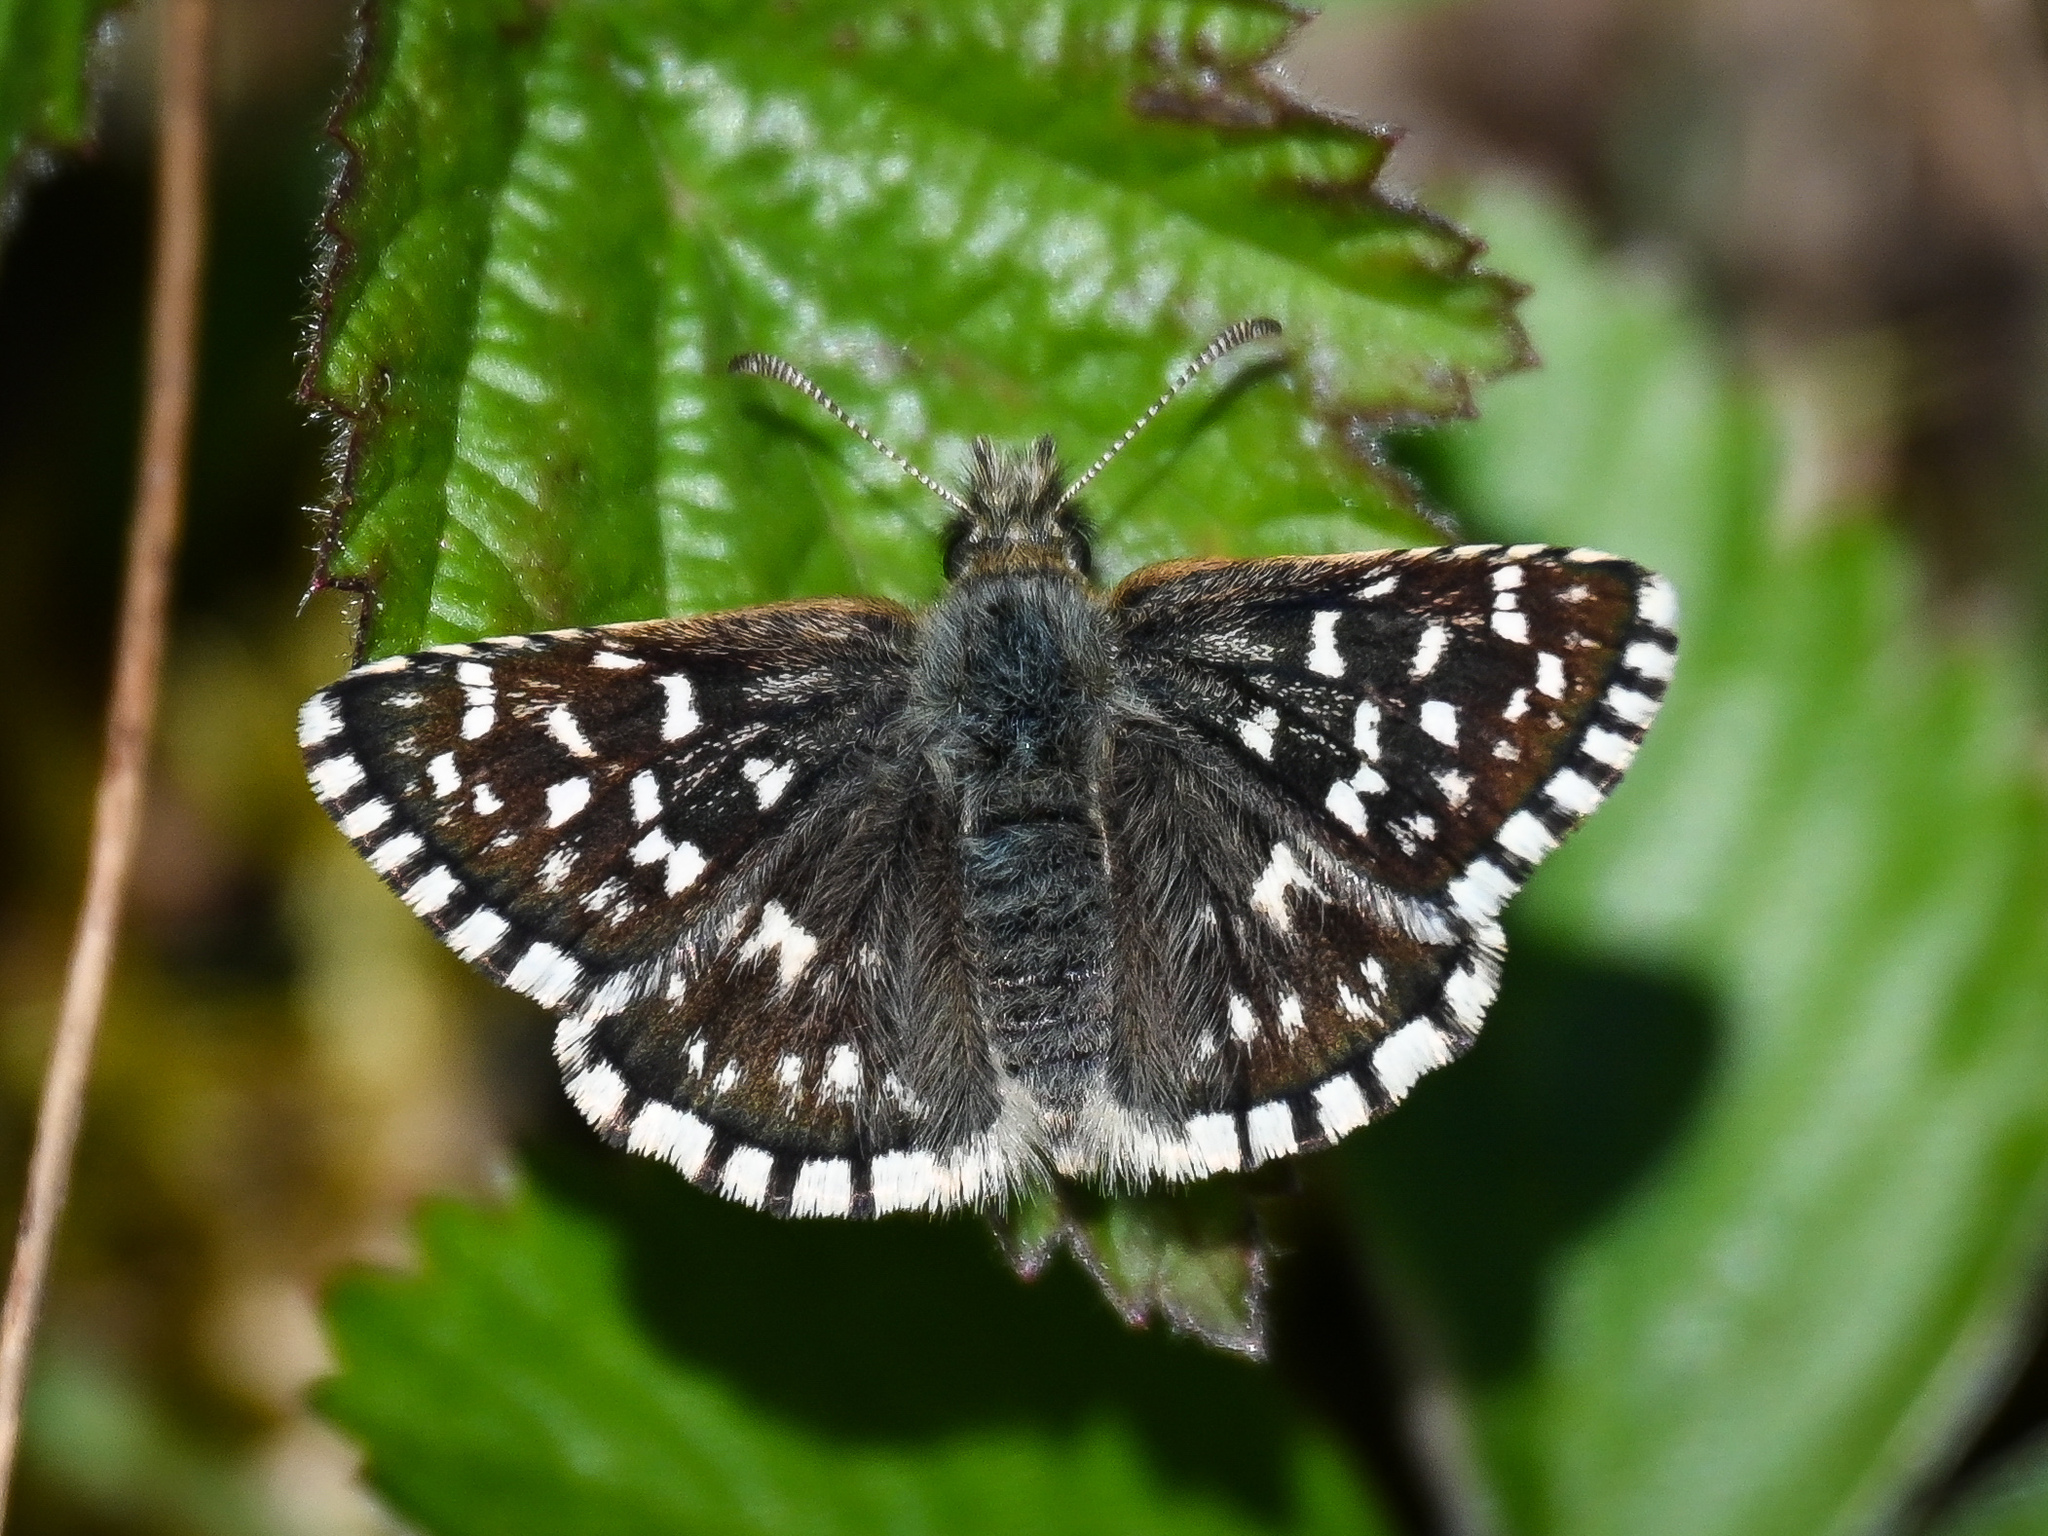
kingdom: Animalia
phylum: Arthropoda
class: Insecta
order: Lepidoptera
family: Hesperiidae
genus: Pyrgus
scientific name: Pyrgus malvae
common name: Grizzled skipper
